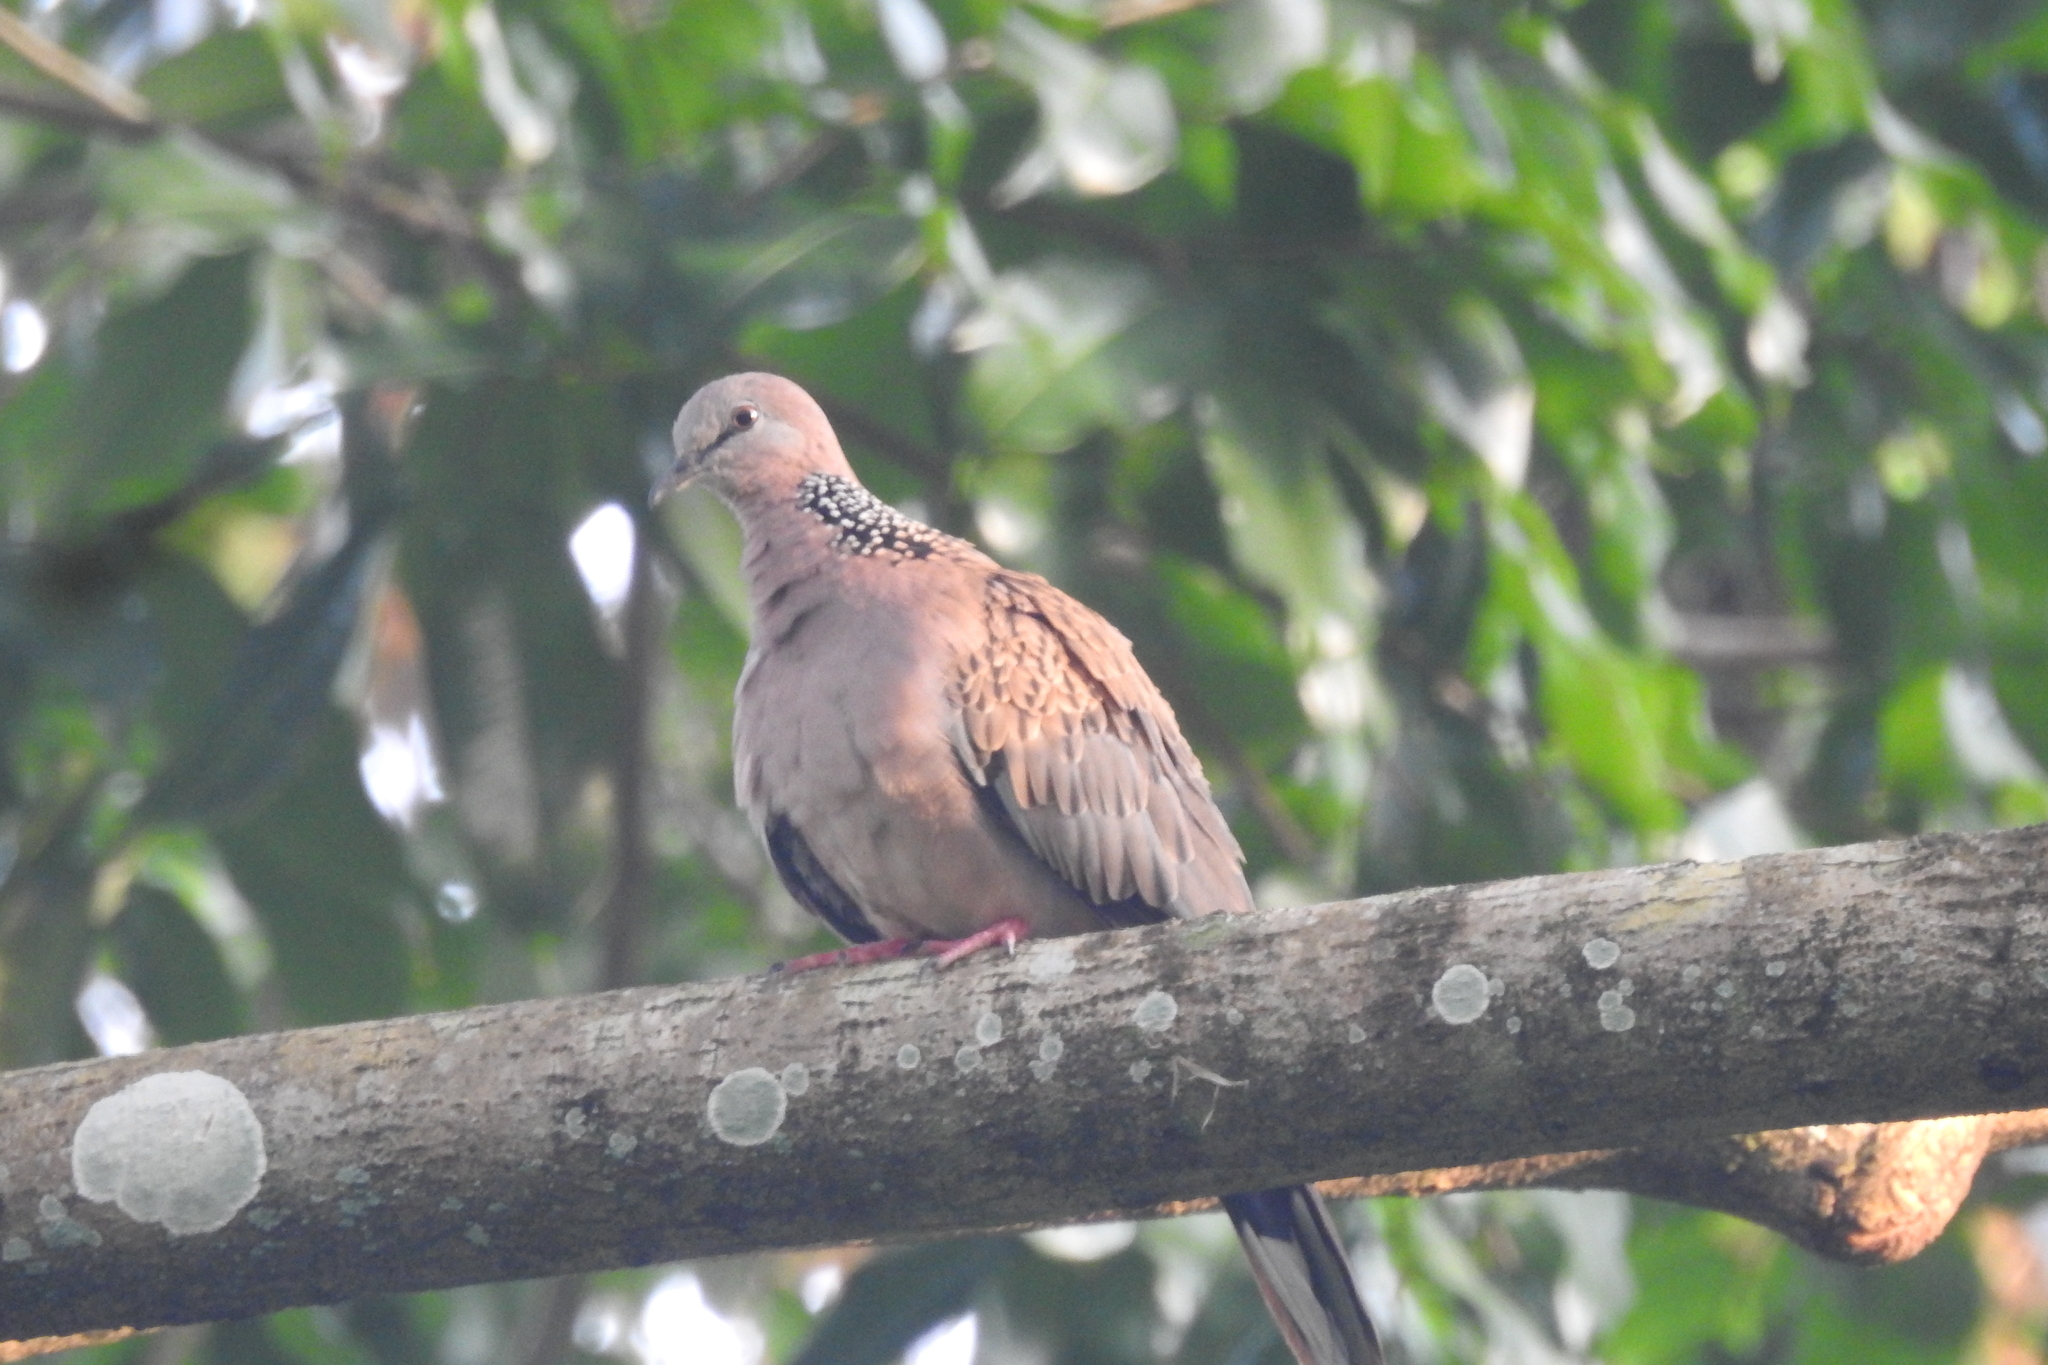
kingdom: Animalia
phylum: Chordata
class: Aves
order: Columbiformes
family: Columbidae
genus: Spilopelia
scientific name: Spilopelia chinensis
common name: Spotted dove
